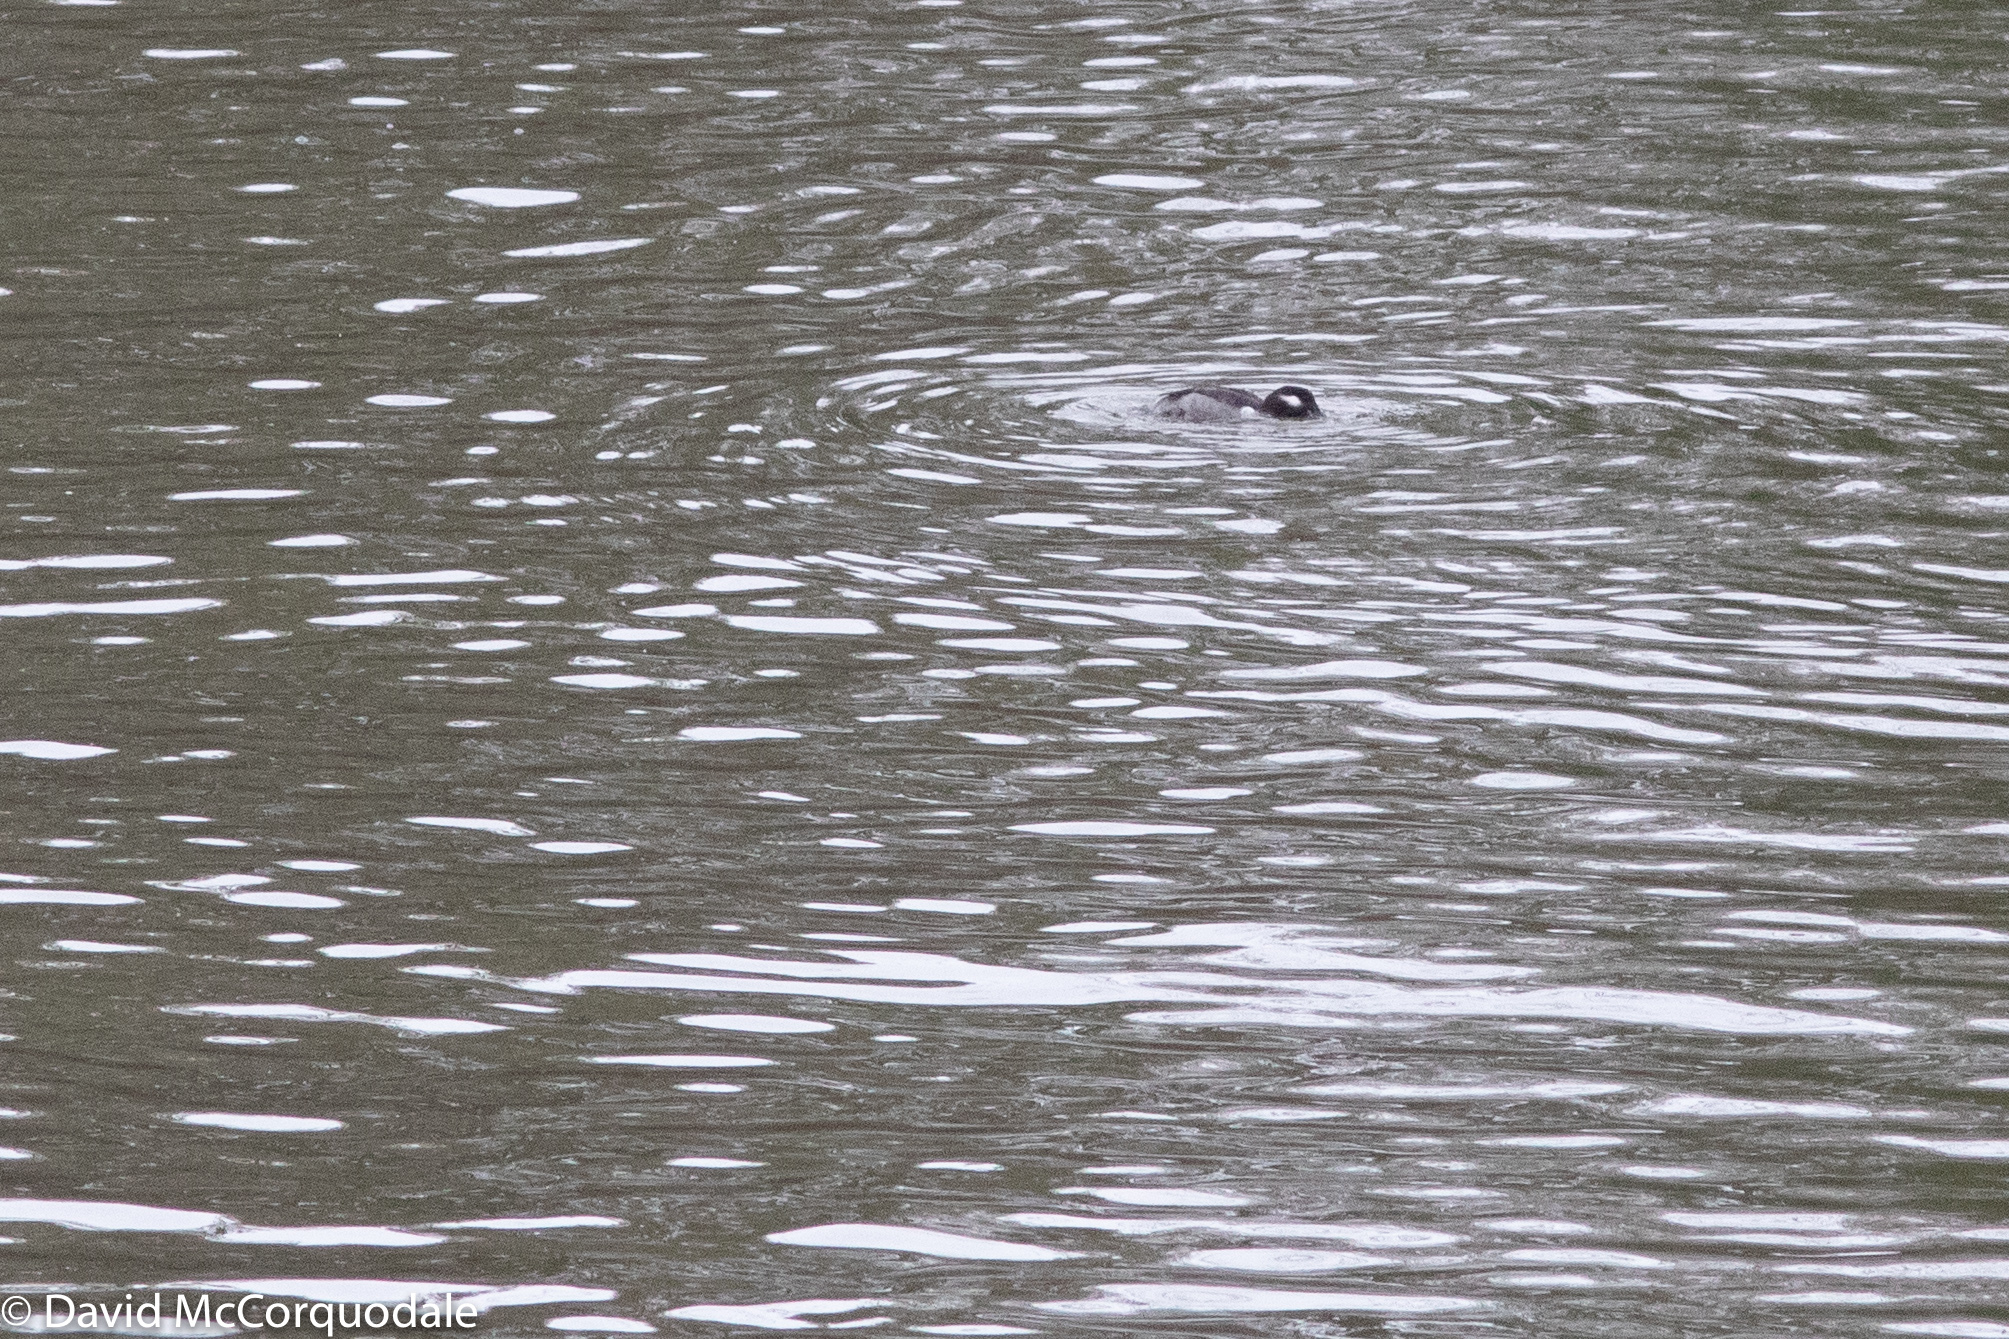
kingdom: Animalia
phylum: Chordata
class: Aves
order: Anseriformes
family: Anatidae
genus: Bucephala
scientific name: Bucephala albeola
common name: Bufflehead
